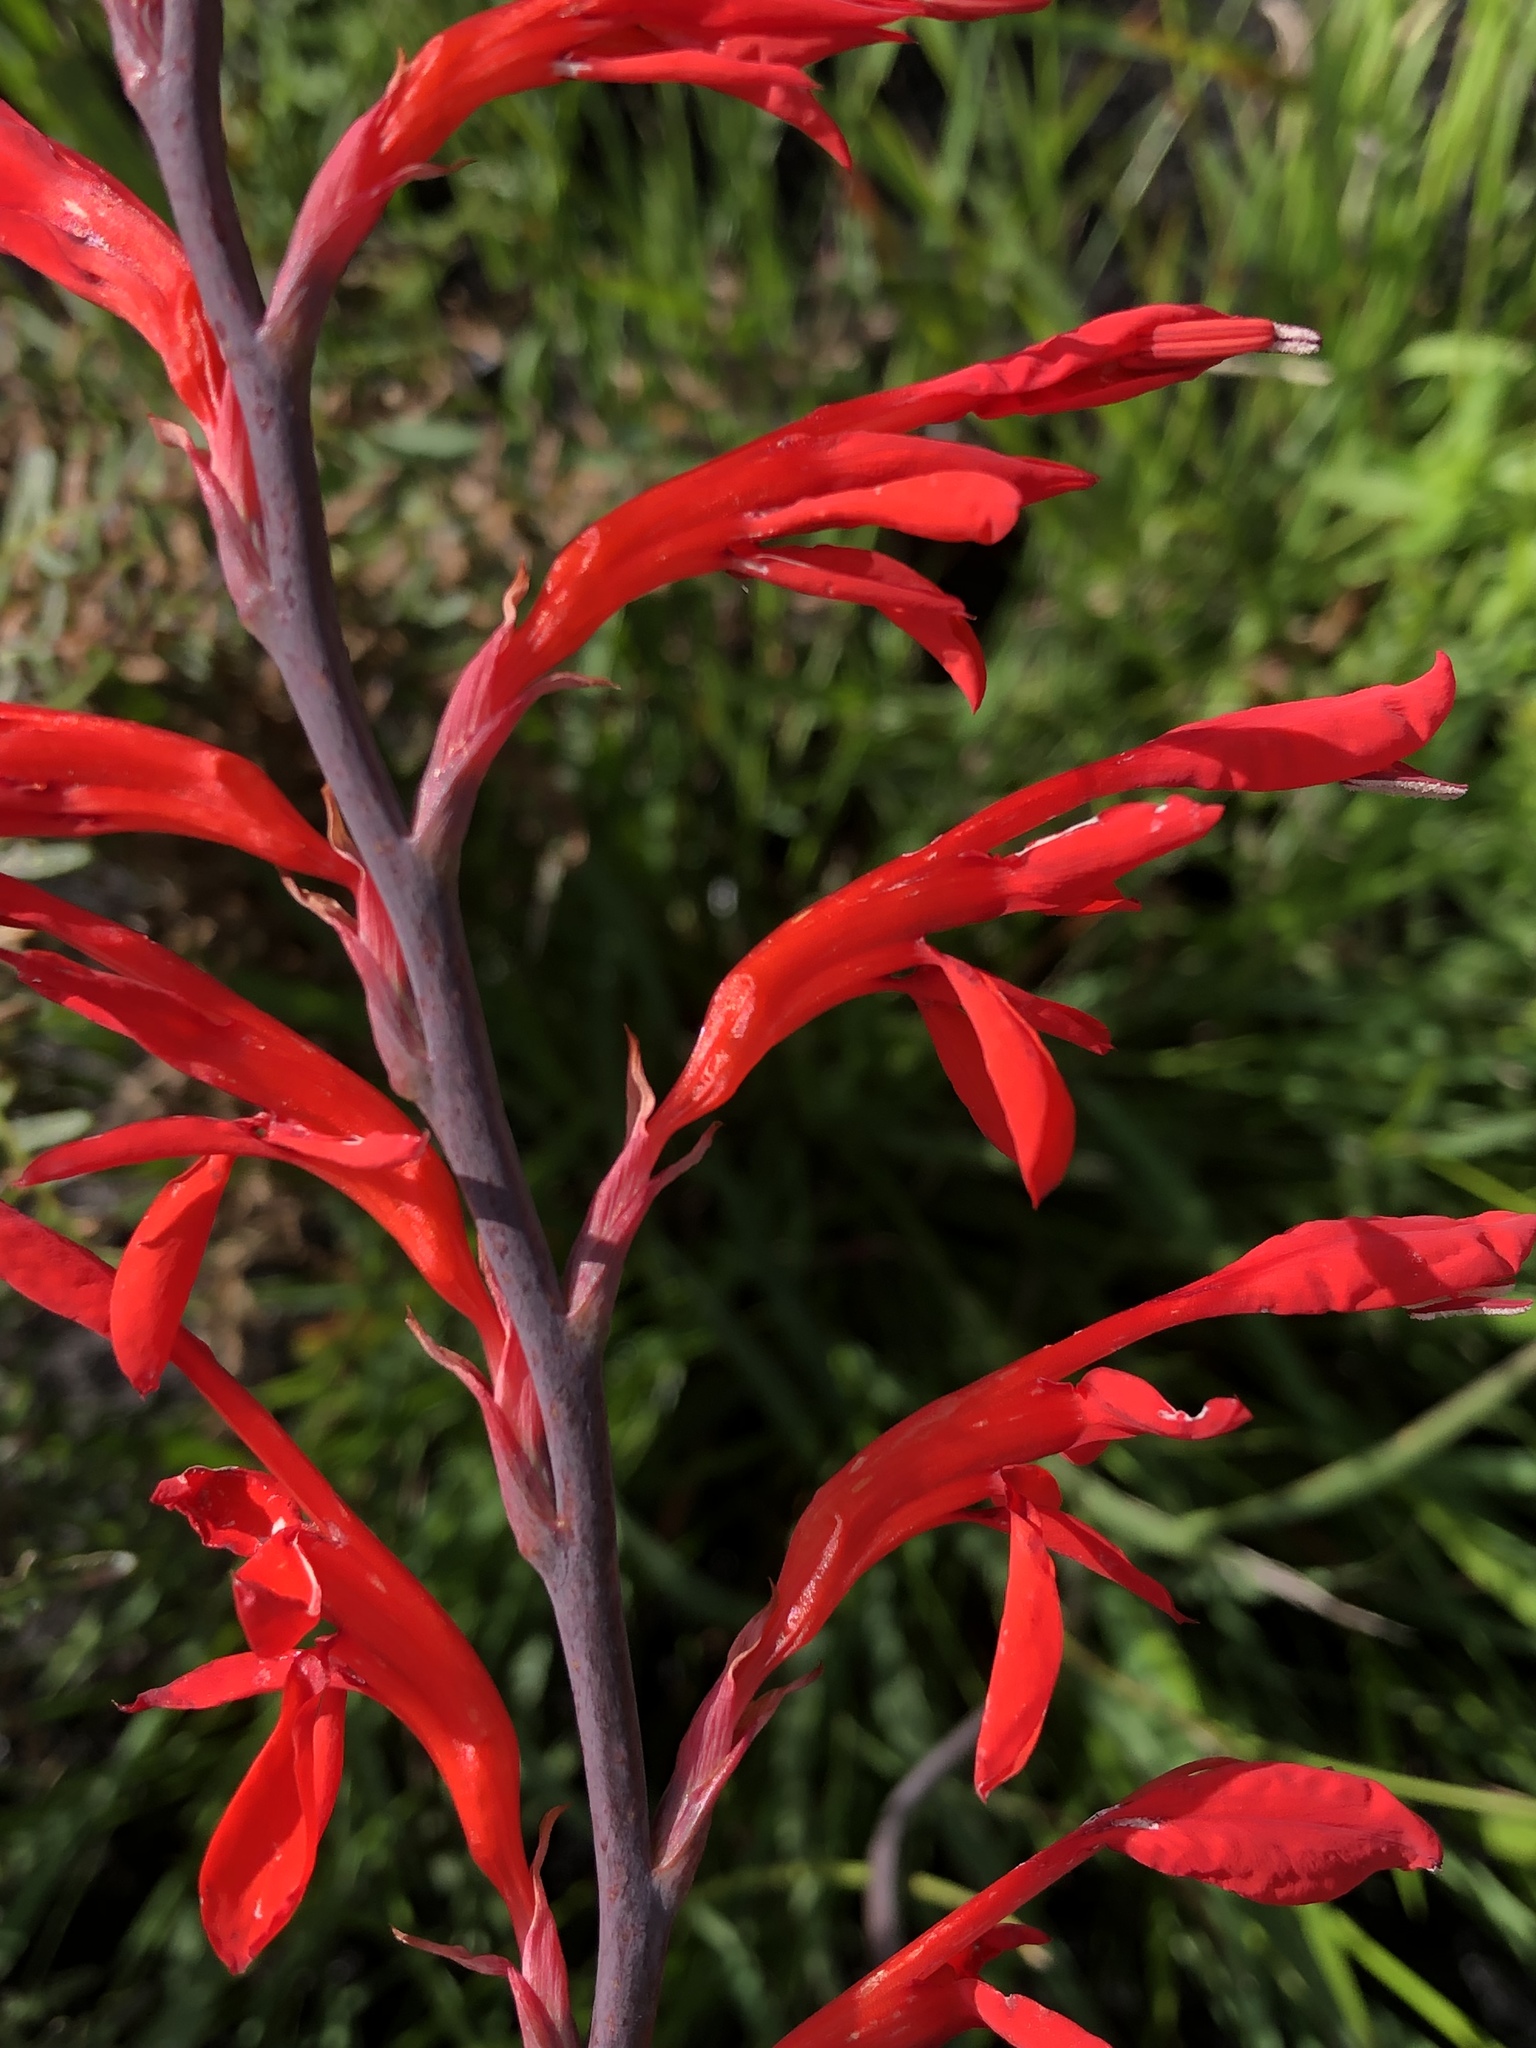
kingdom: Plantae
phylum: Tracheophyta
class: Liliopsida
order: Asparagales
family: Iridaceae
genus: Tritoniopsis
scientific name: Tritoniopsis caffra
